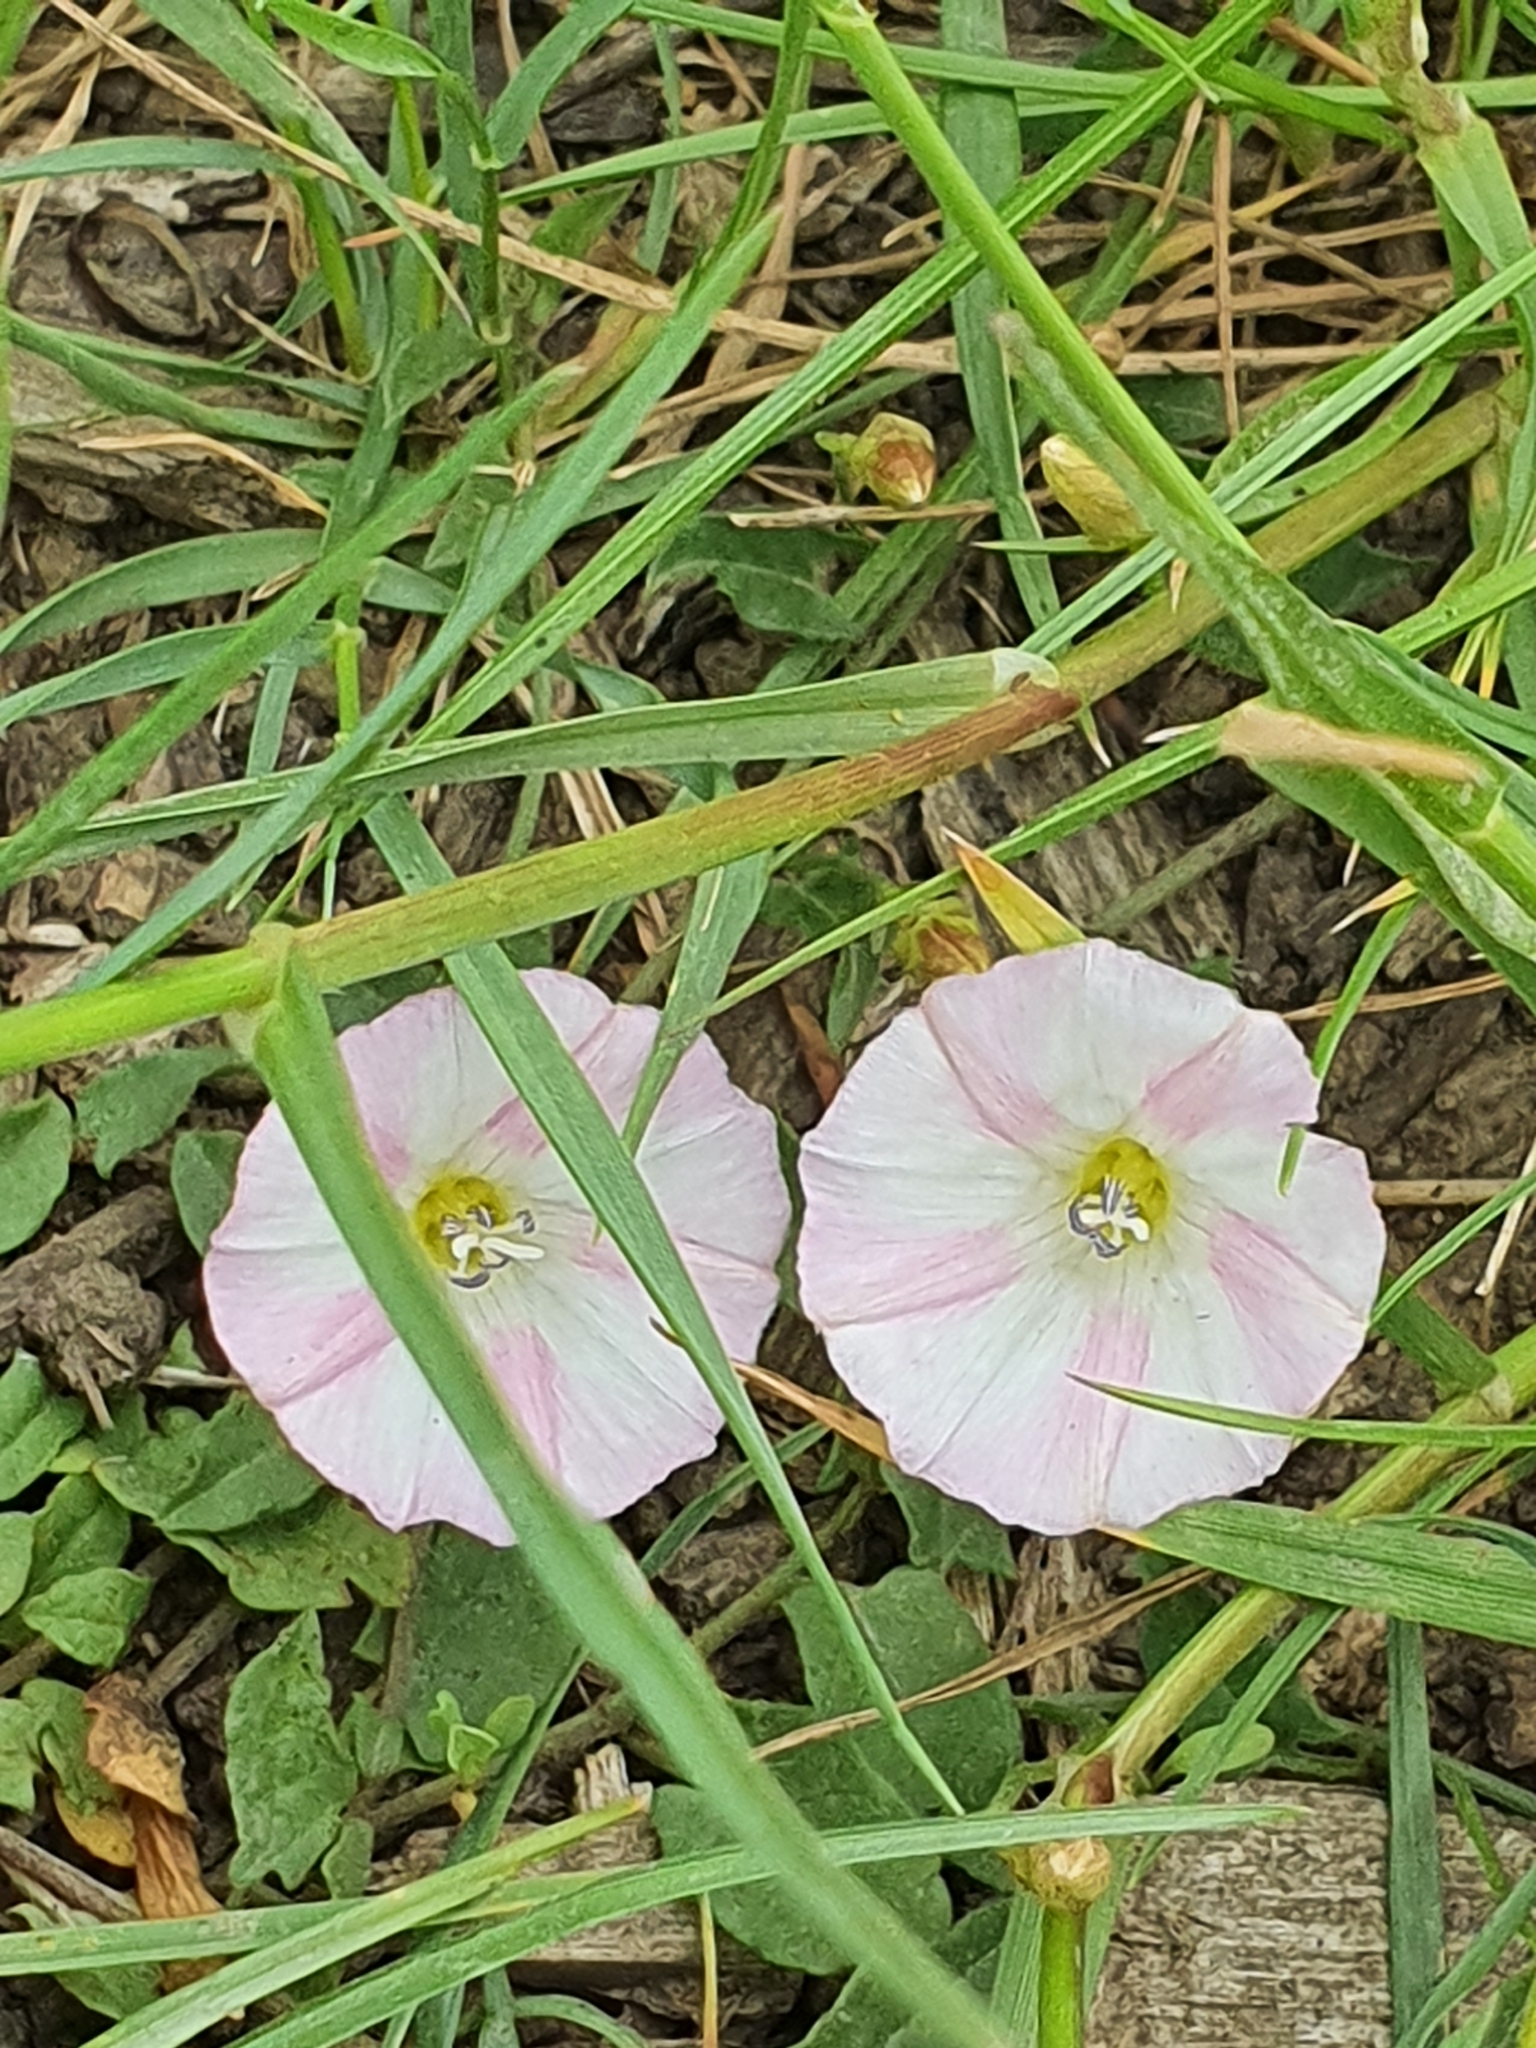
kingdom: Plantae
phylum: Tracheophyta
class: Magnoliopsida
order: Solanales
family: Convolvulaceae
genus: Convolvulus
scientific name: Convolvulus arvensis
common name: Field bindweed
